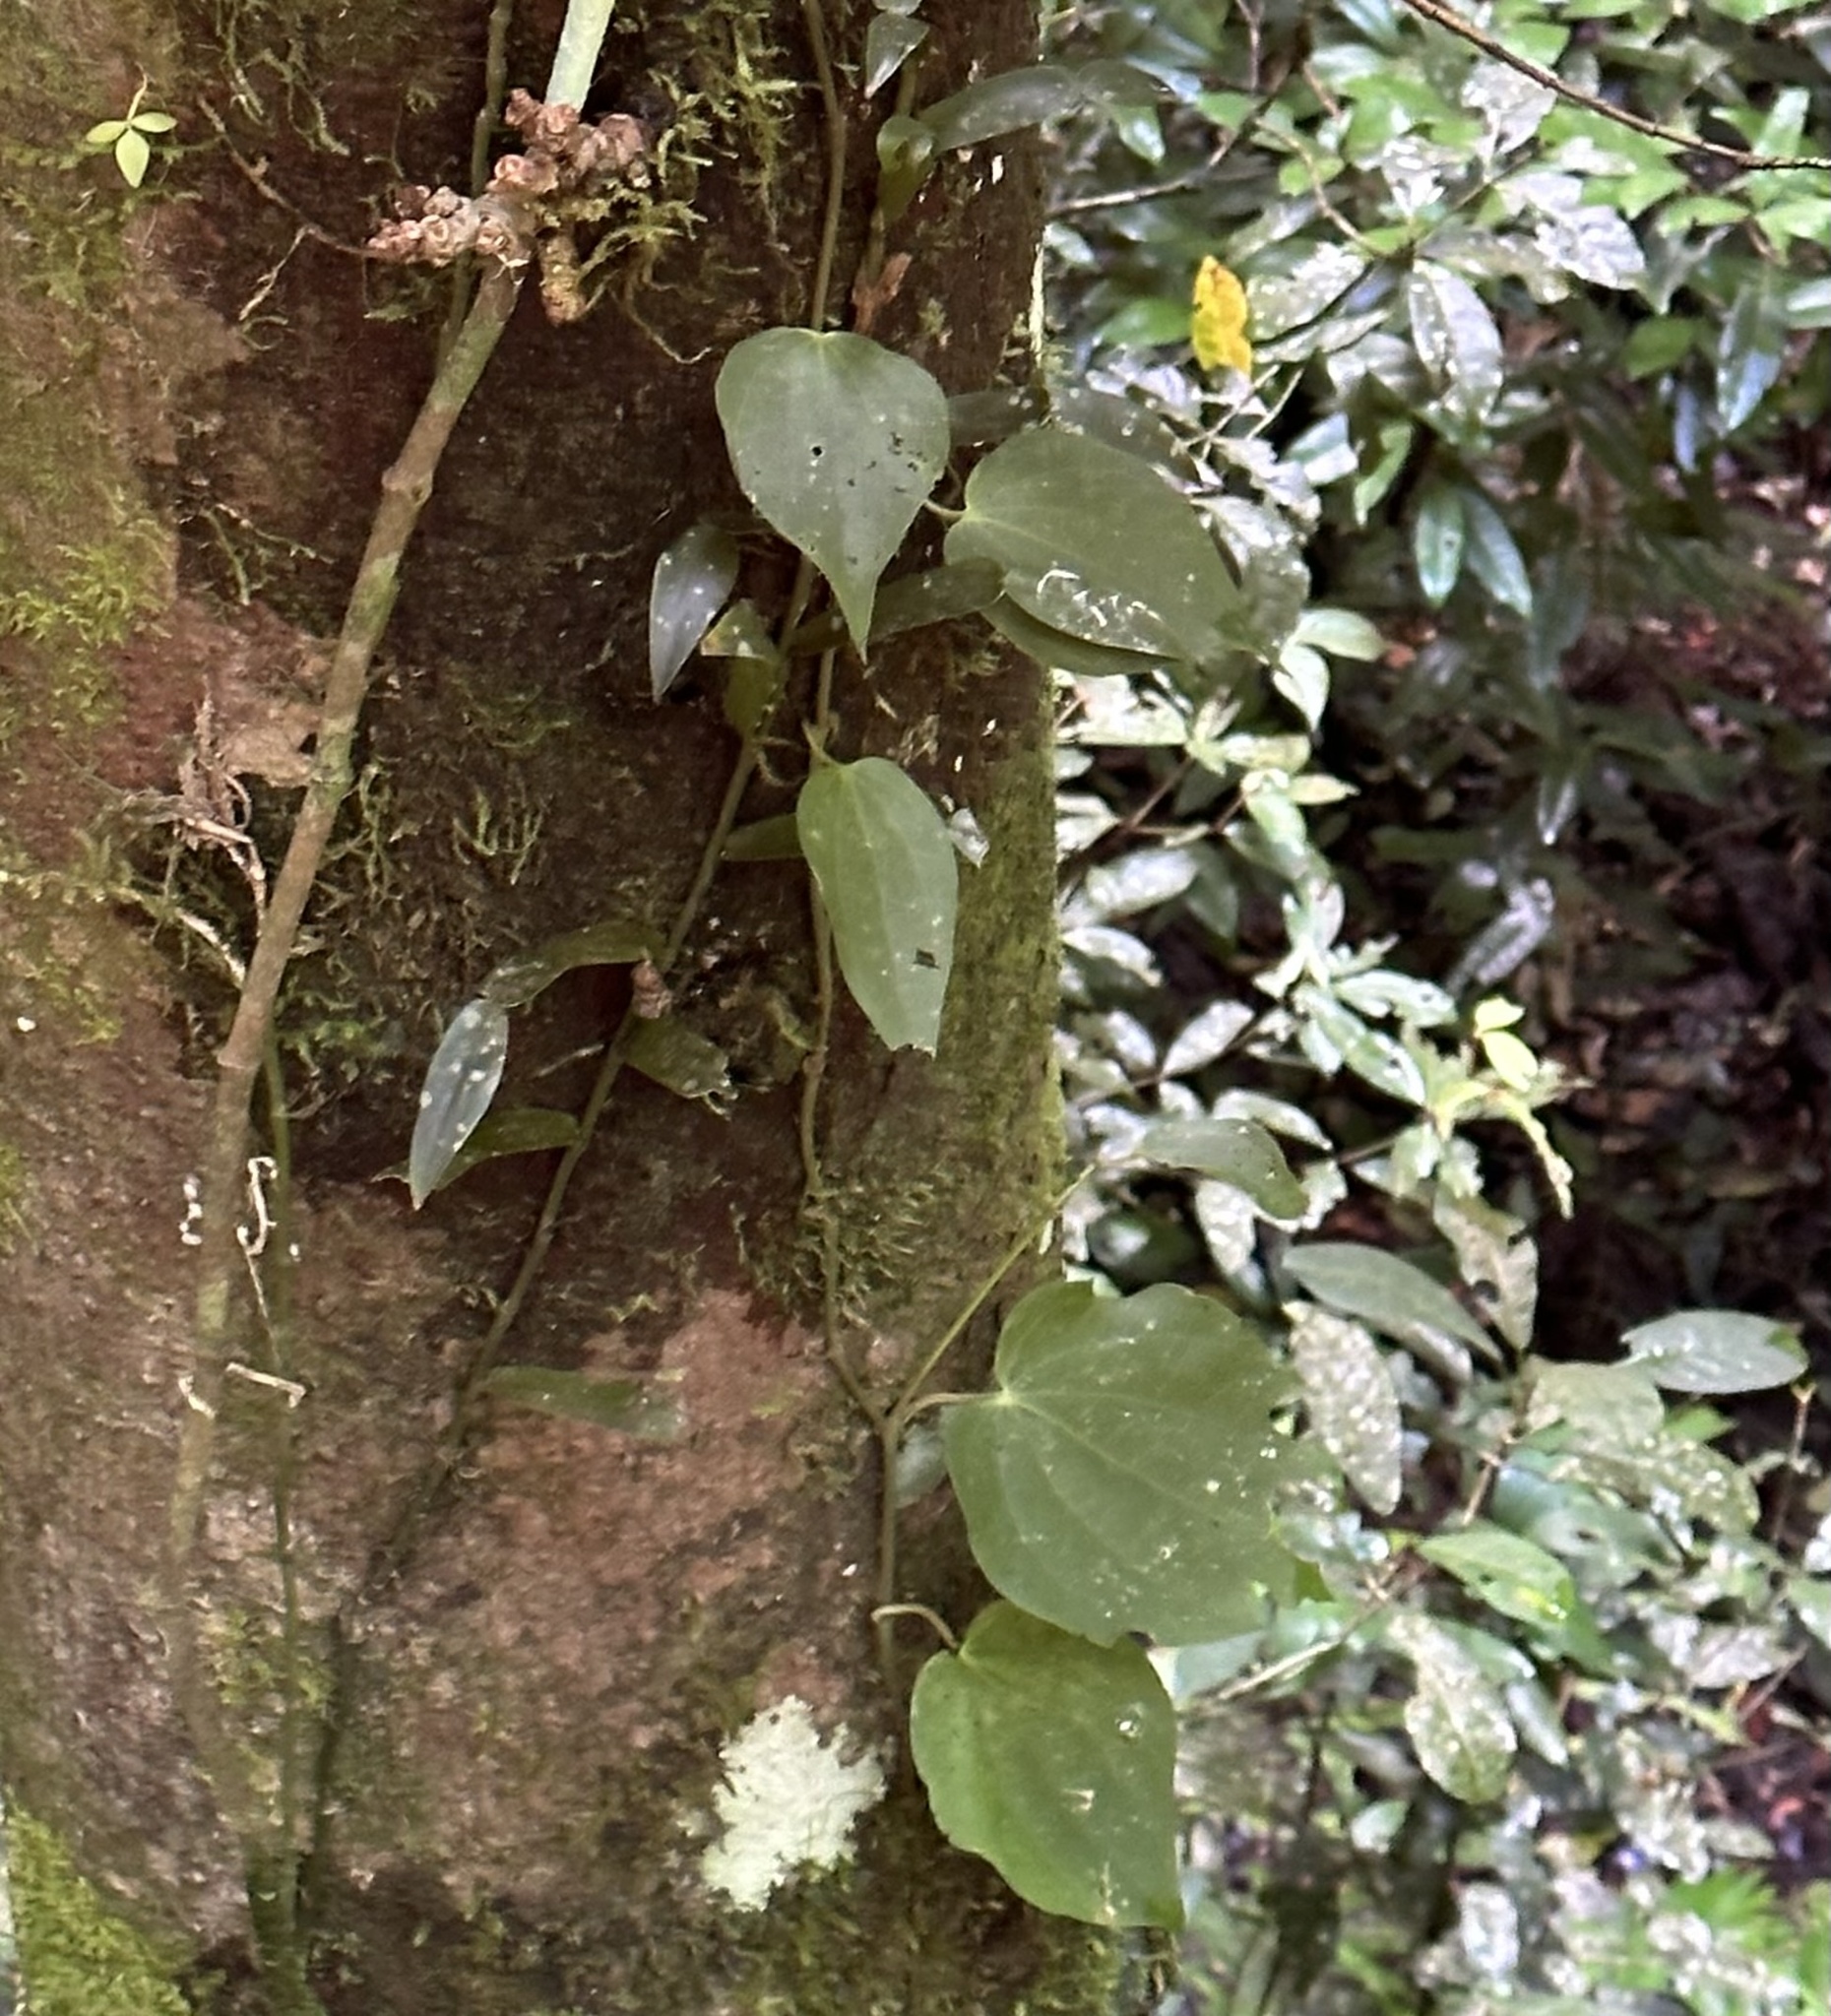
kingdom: Plantae
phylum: Tracheophyta
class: Magnoliopsida
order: Piperales
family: Piperaceae
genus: Piper
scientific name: Piper hederaceum
